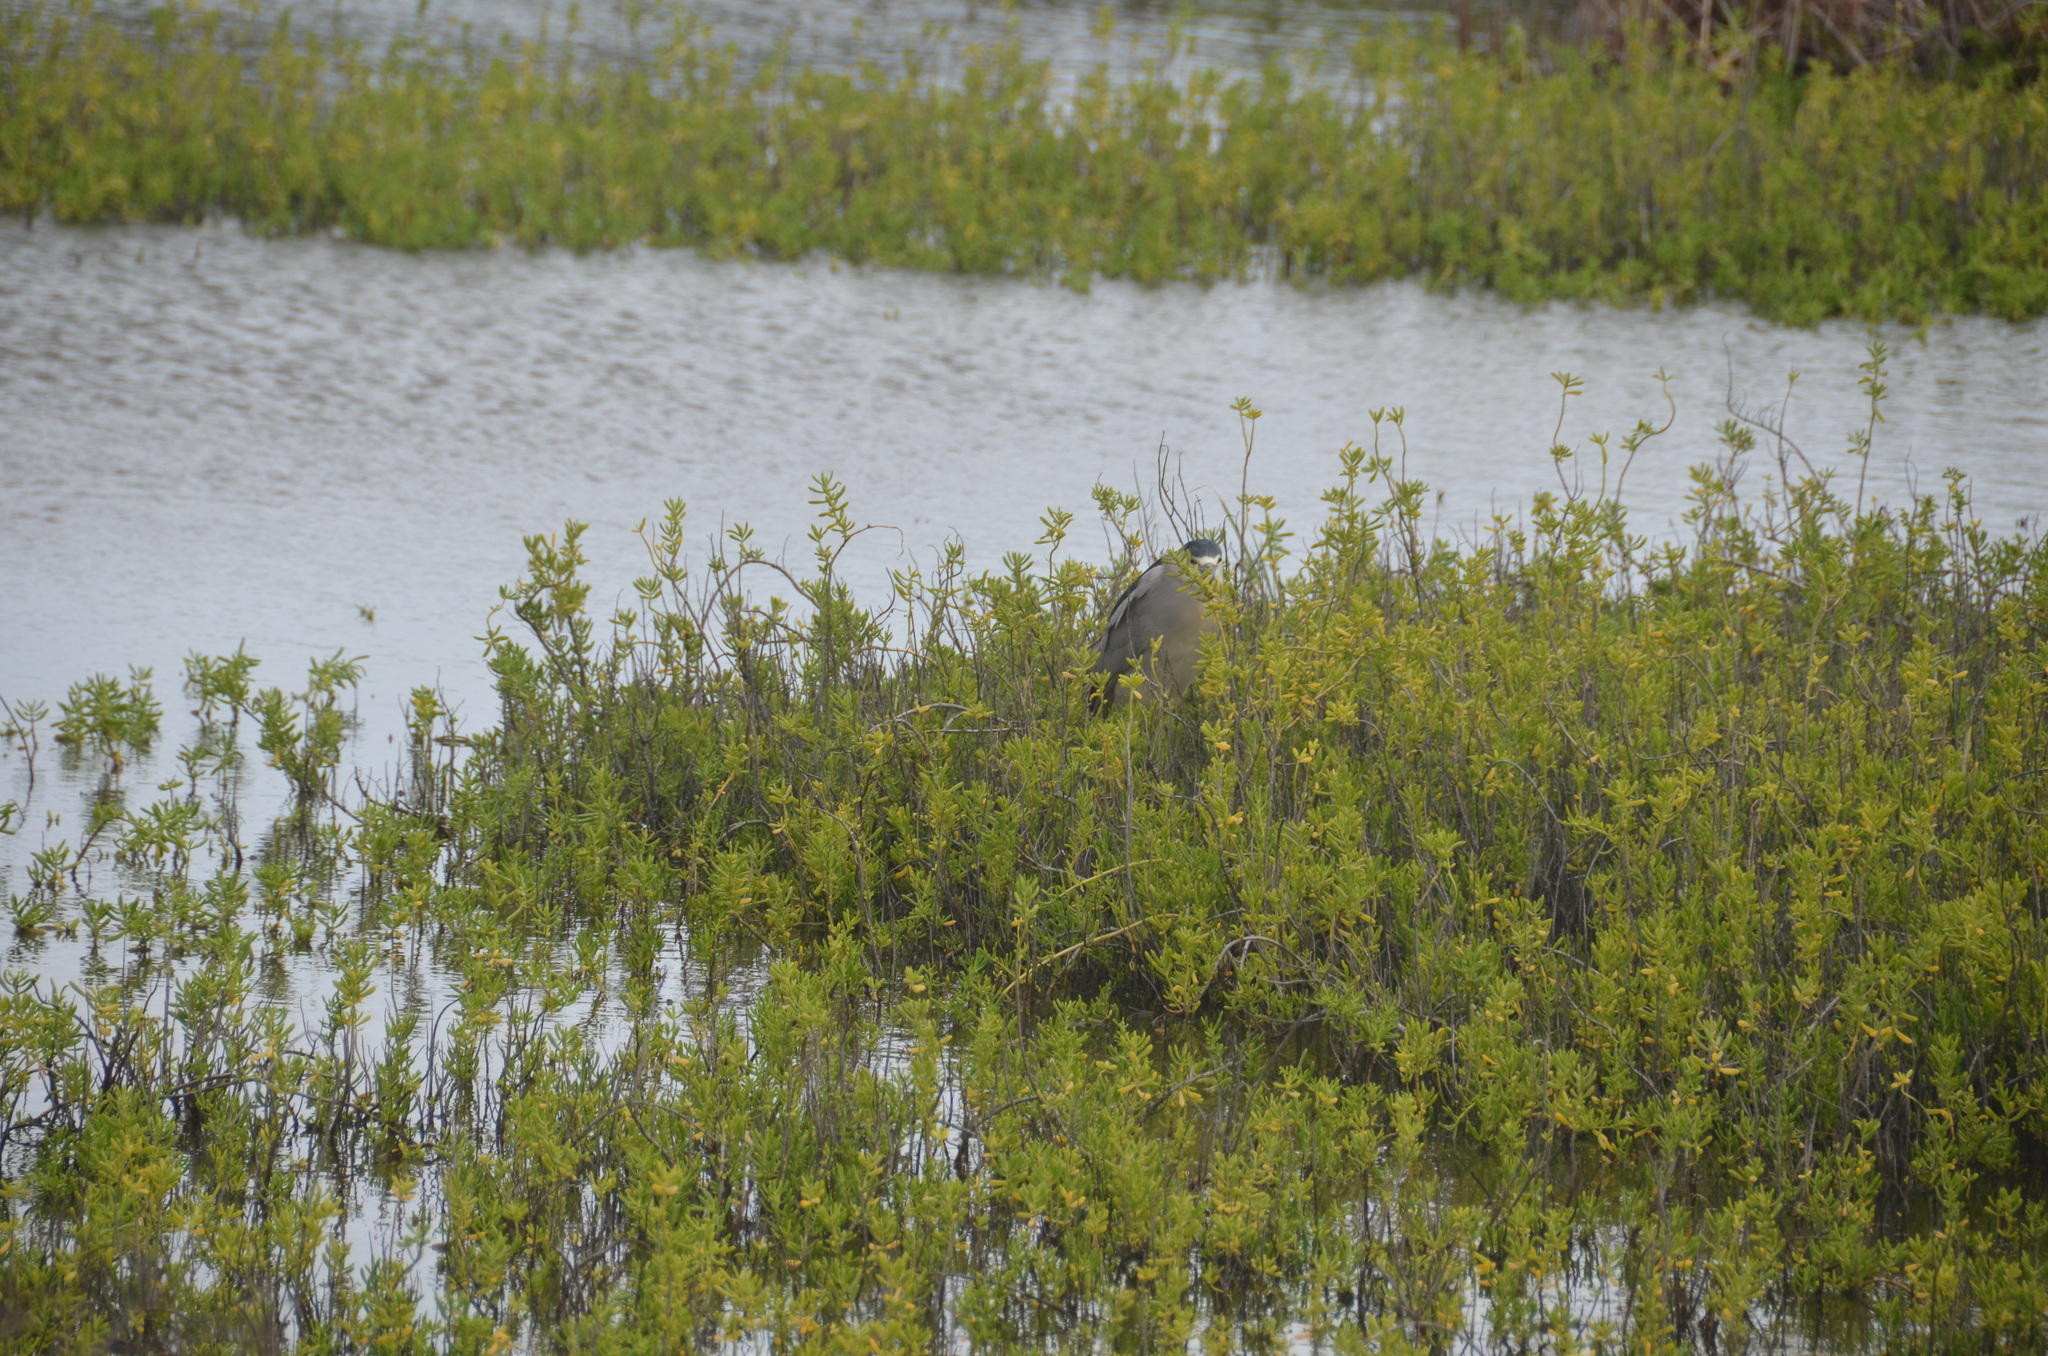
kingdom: Animalia
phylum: Chordata
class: Aves
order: Pelecaniformes
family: Ardeidae
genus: Nycticorax
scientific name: Nycticorax nycticorax
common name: Black-crowned night heron
